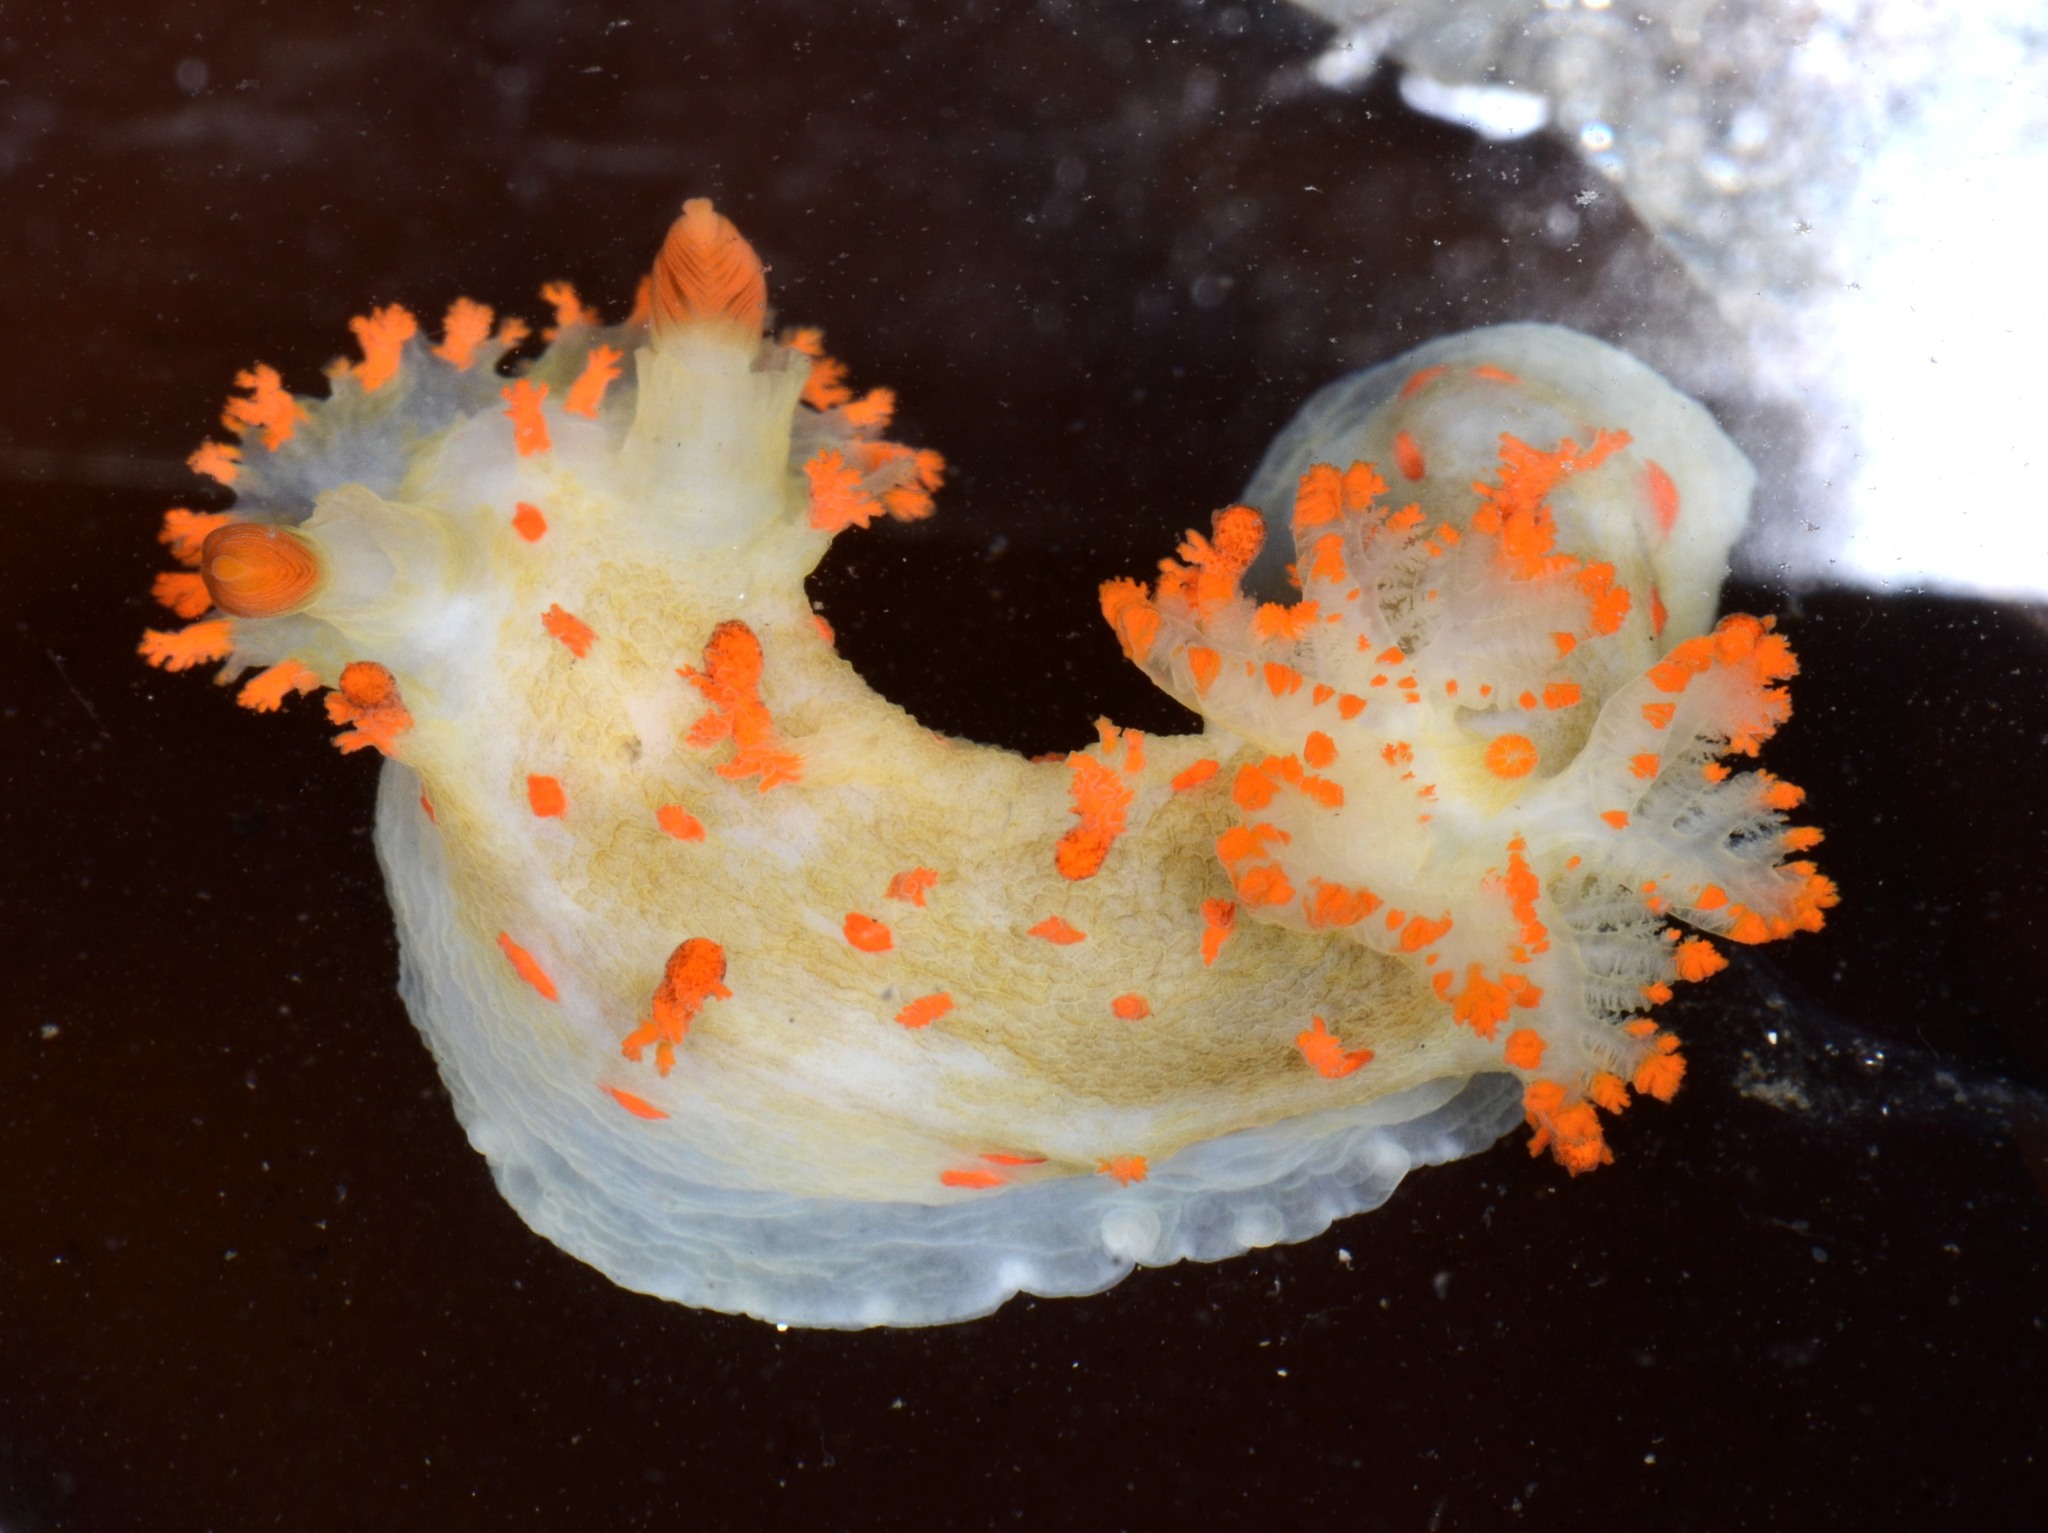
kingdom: Animalia
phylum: Mollusca
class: Gastropoda
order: Nudibranchia
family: Polyceridae
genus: Triopha
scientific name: Triopha modesta
